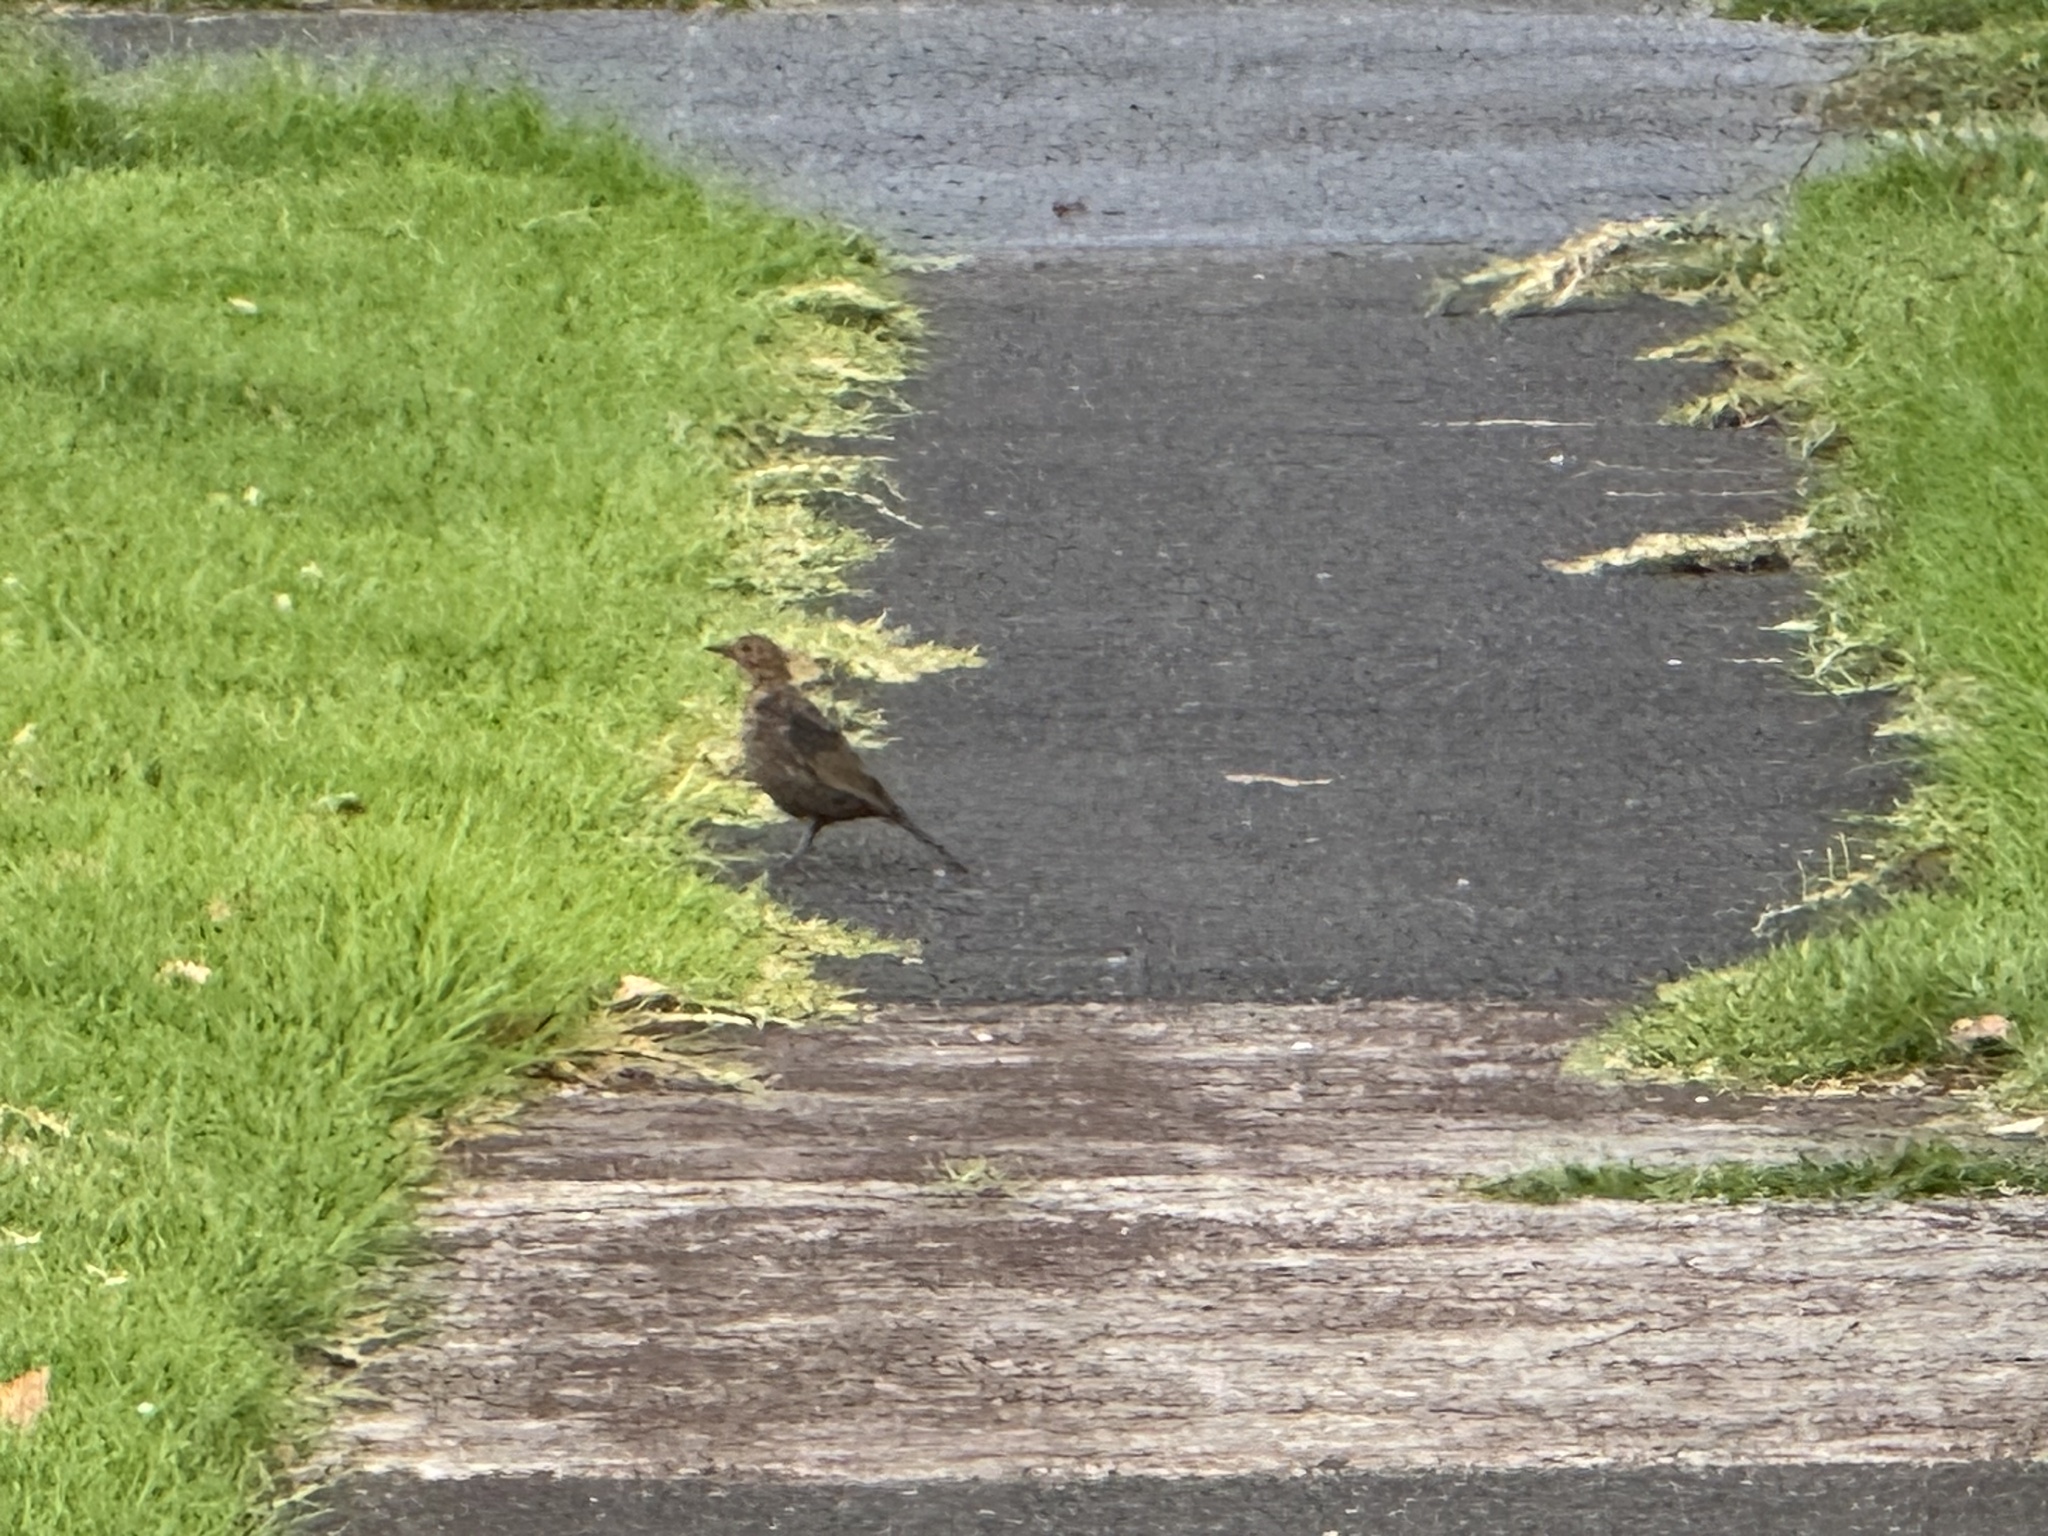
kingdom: Animalia
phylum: Chordata
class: Aves
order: Passeriformes
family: Turdidae
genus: Turdus
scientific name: Turdus merula
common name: Common blackbird
